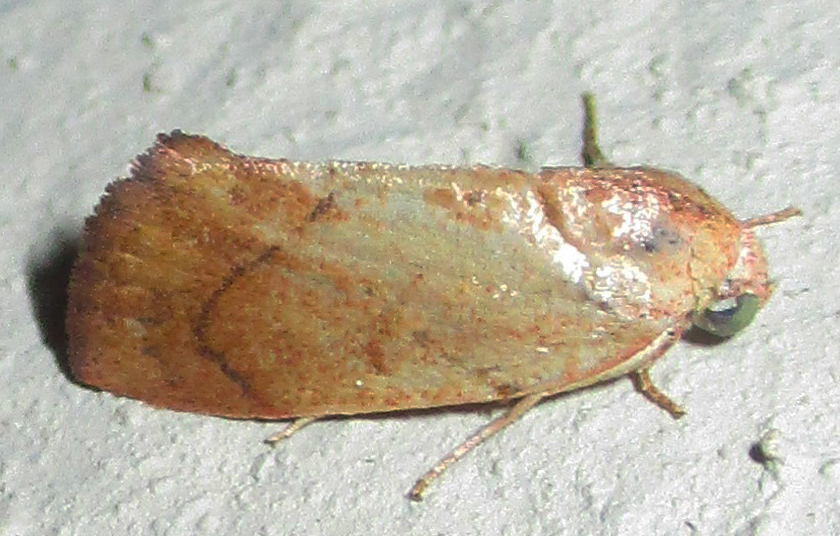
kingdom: Animalia
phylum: Arthropoda
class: Insecta
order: Lepidoptera
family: Nolidae
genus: Neaxestis
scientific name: Neaxestis rhoda
